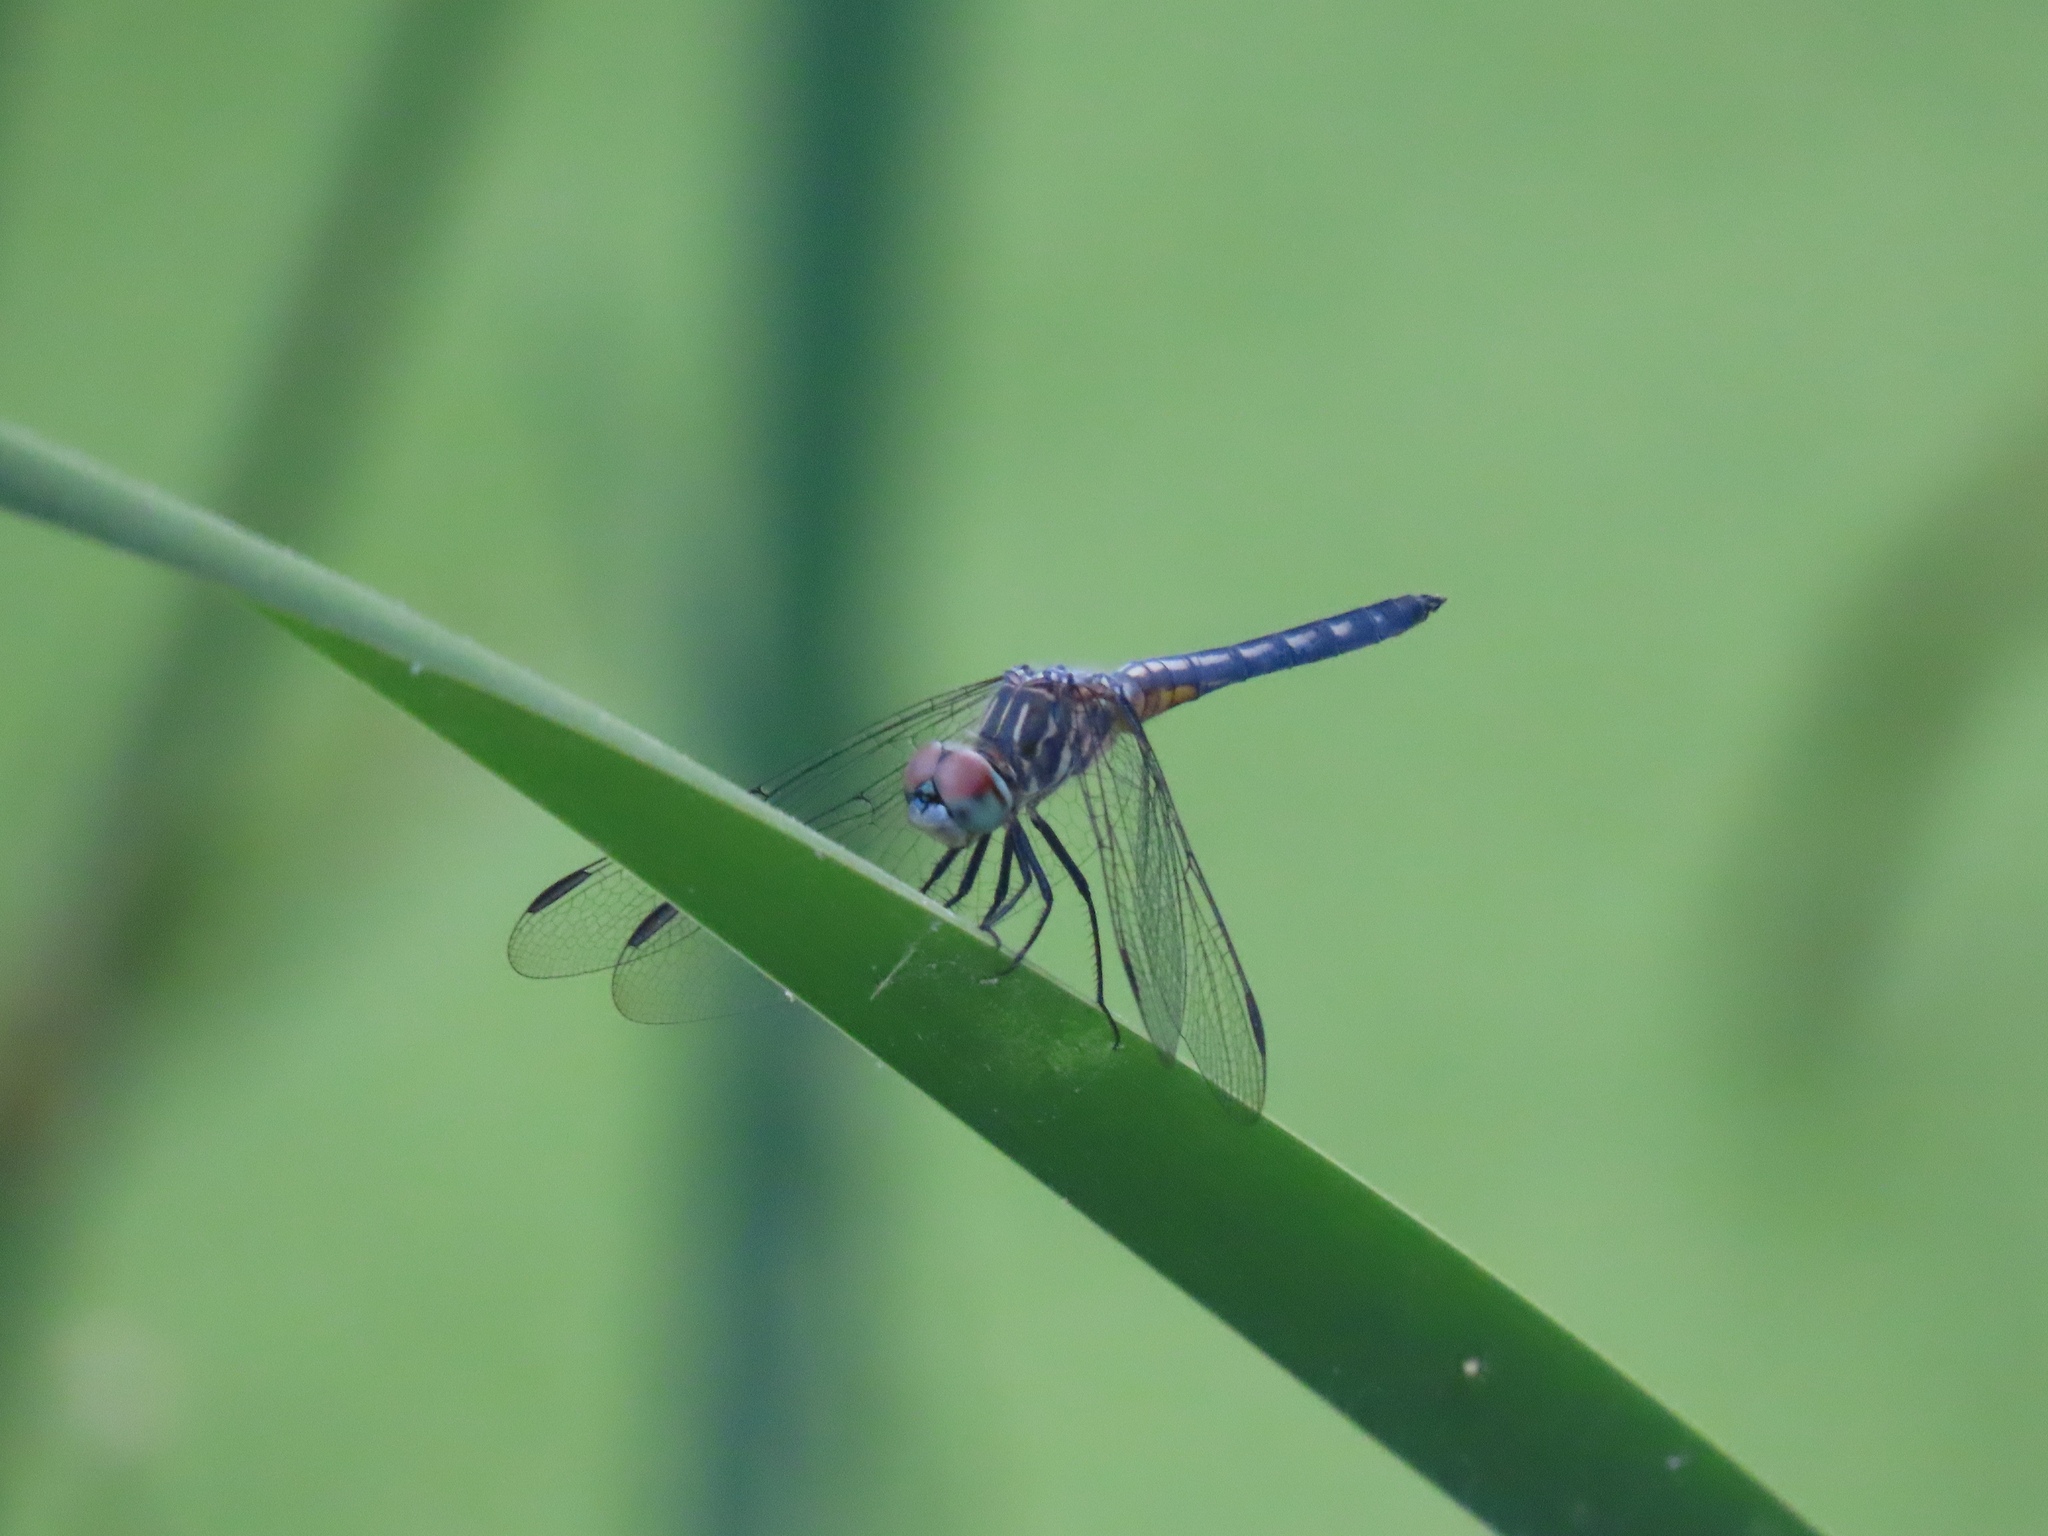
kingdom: Animalia
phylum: Arthropoda
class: Insecta
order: Odonata
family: Libellulidae
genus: Pachydiplax
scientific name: Pachydiplax longipennis
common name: Blue dasher
